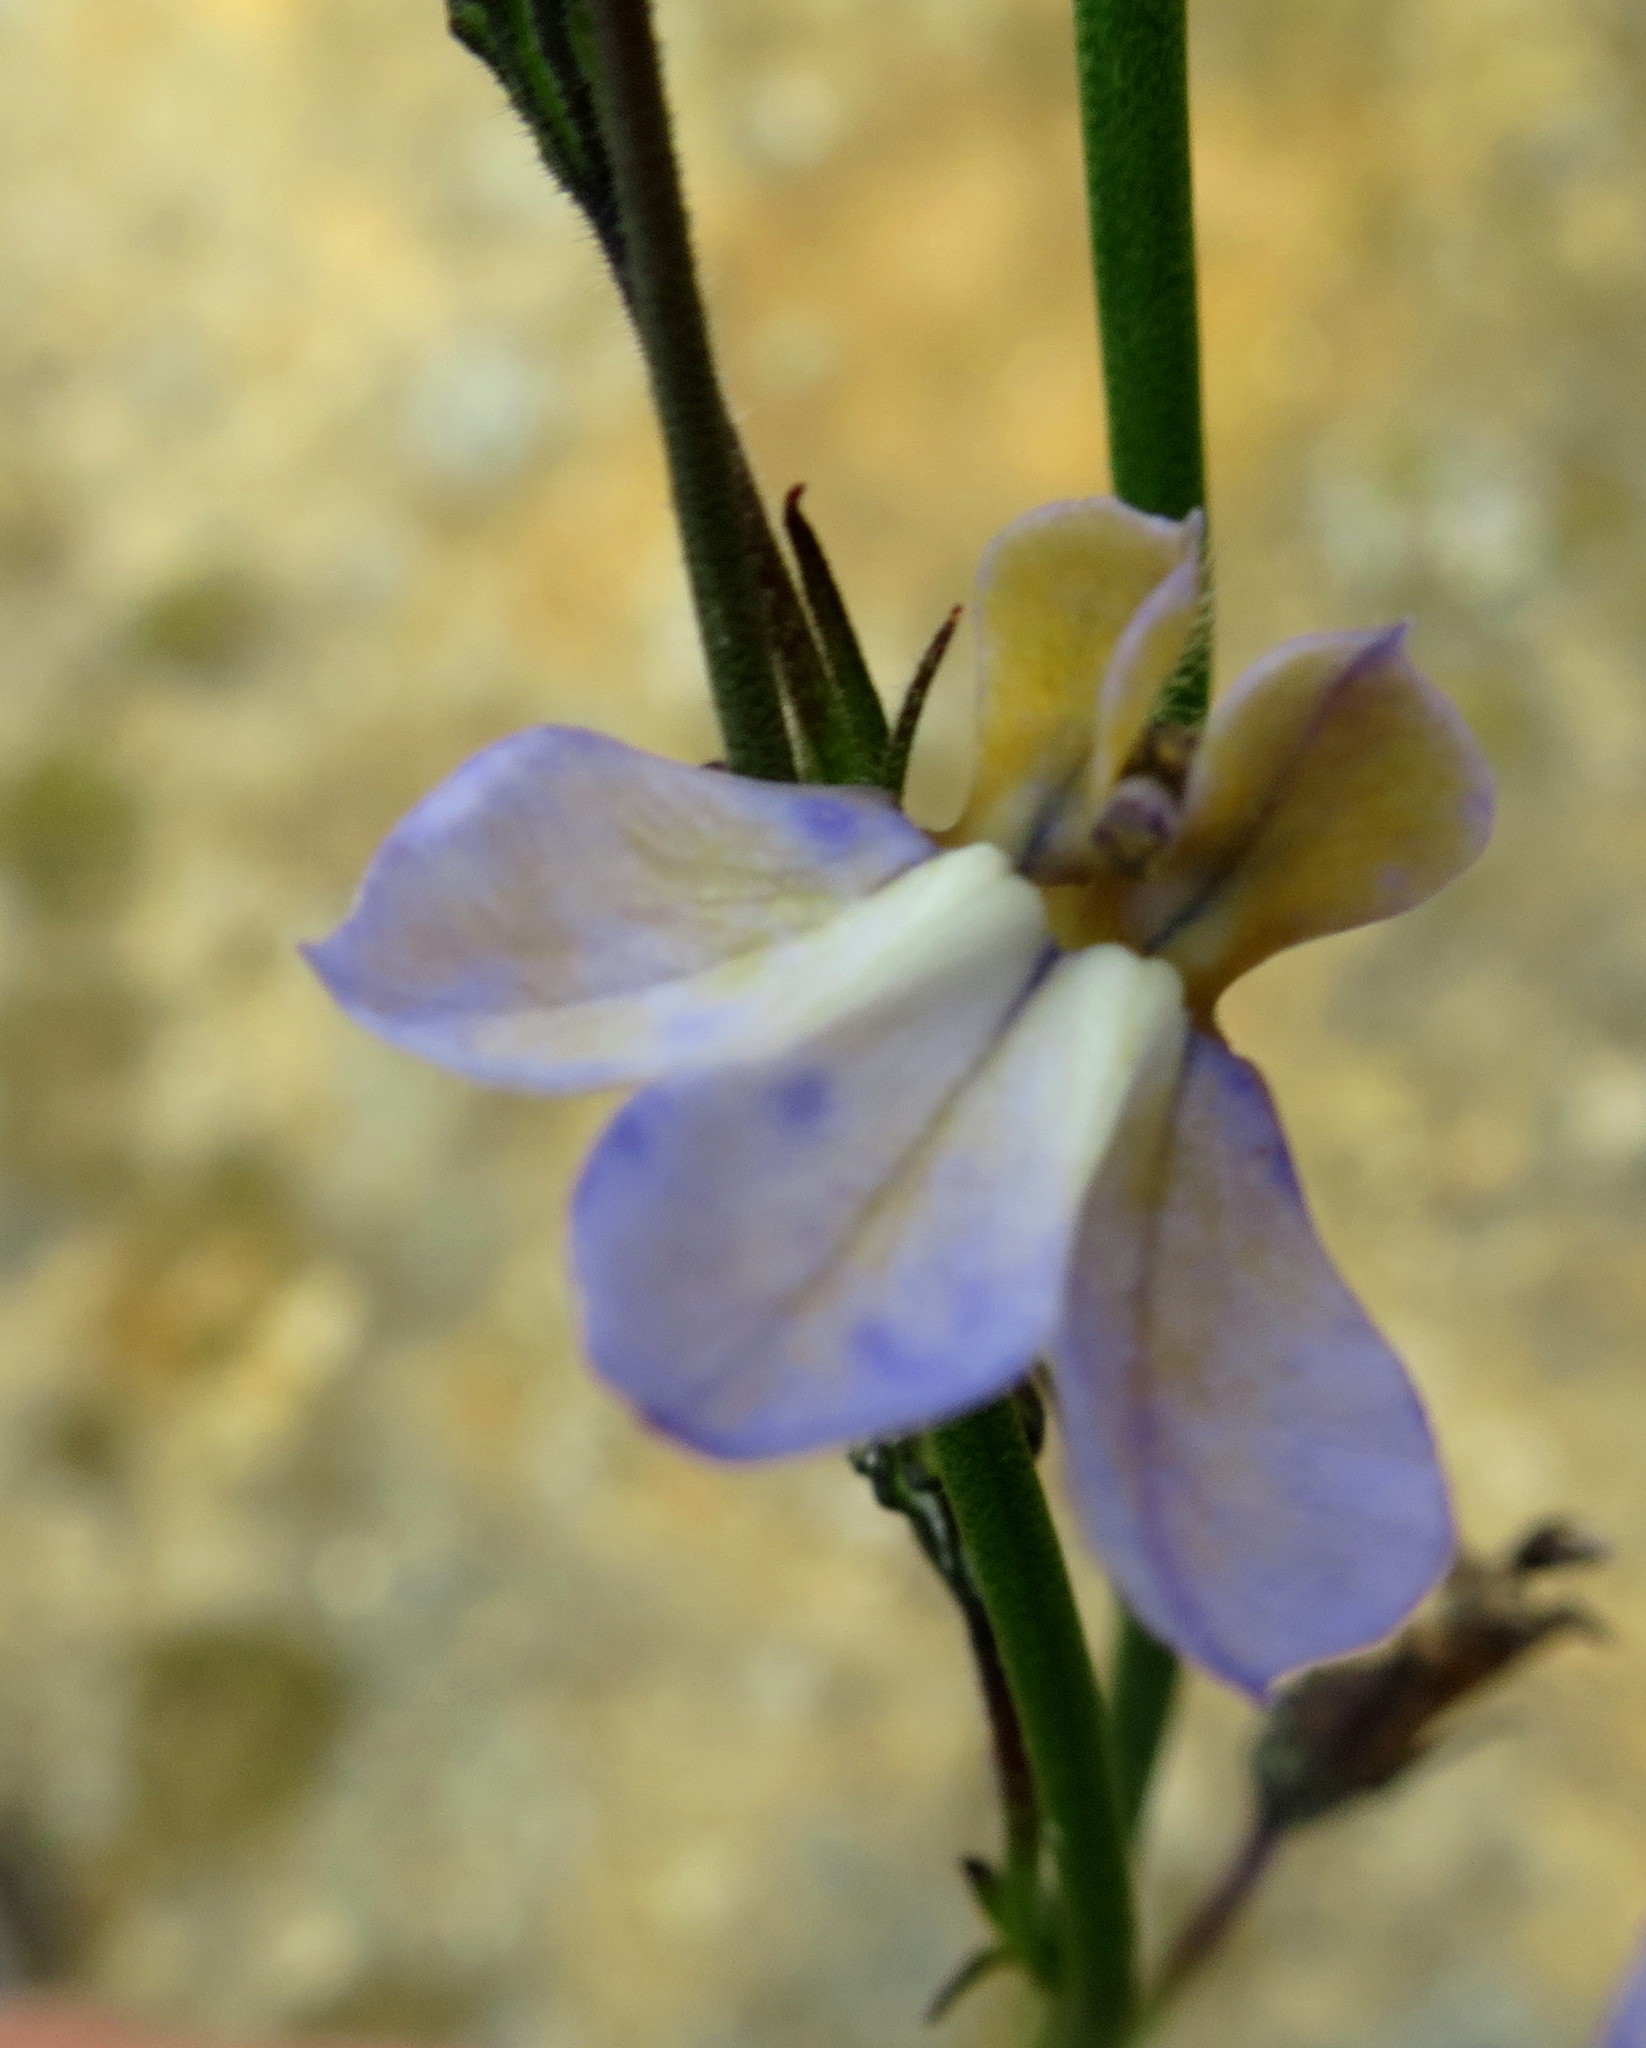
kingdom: Plantae
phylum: Tracheophyta
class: Magnoliopsida
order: Asterales
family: Campanulaceae
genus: Lobelia
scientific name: Lobelia capillifolia
